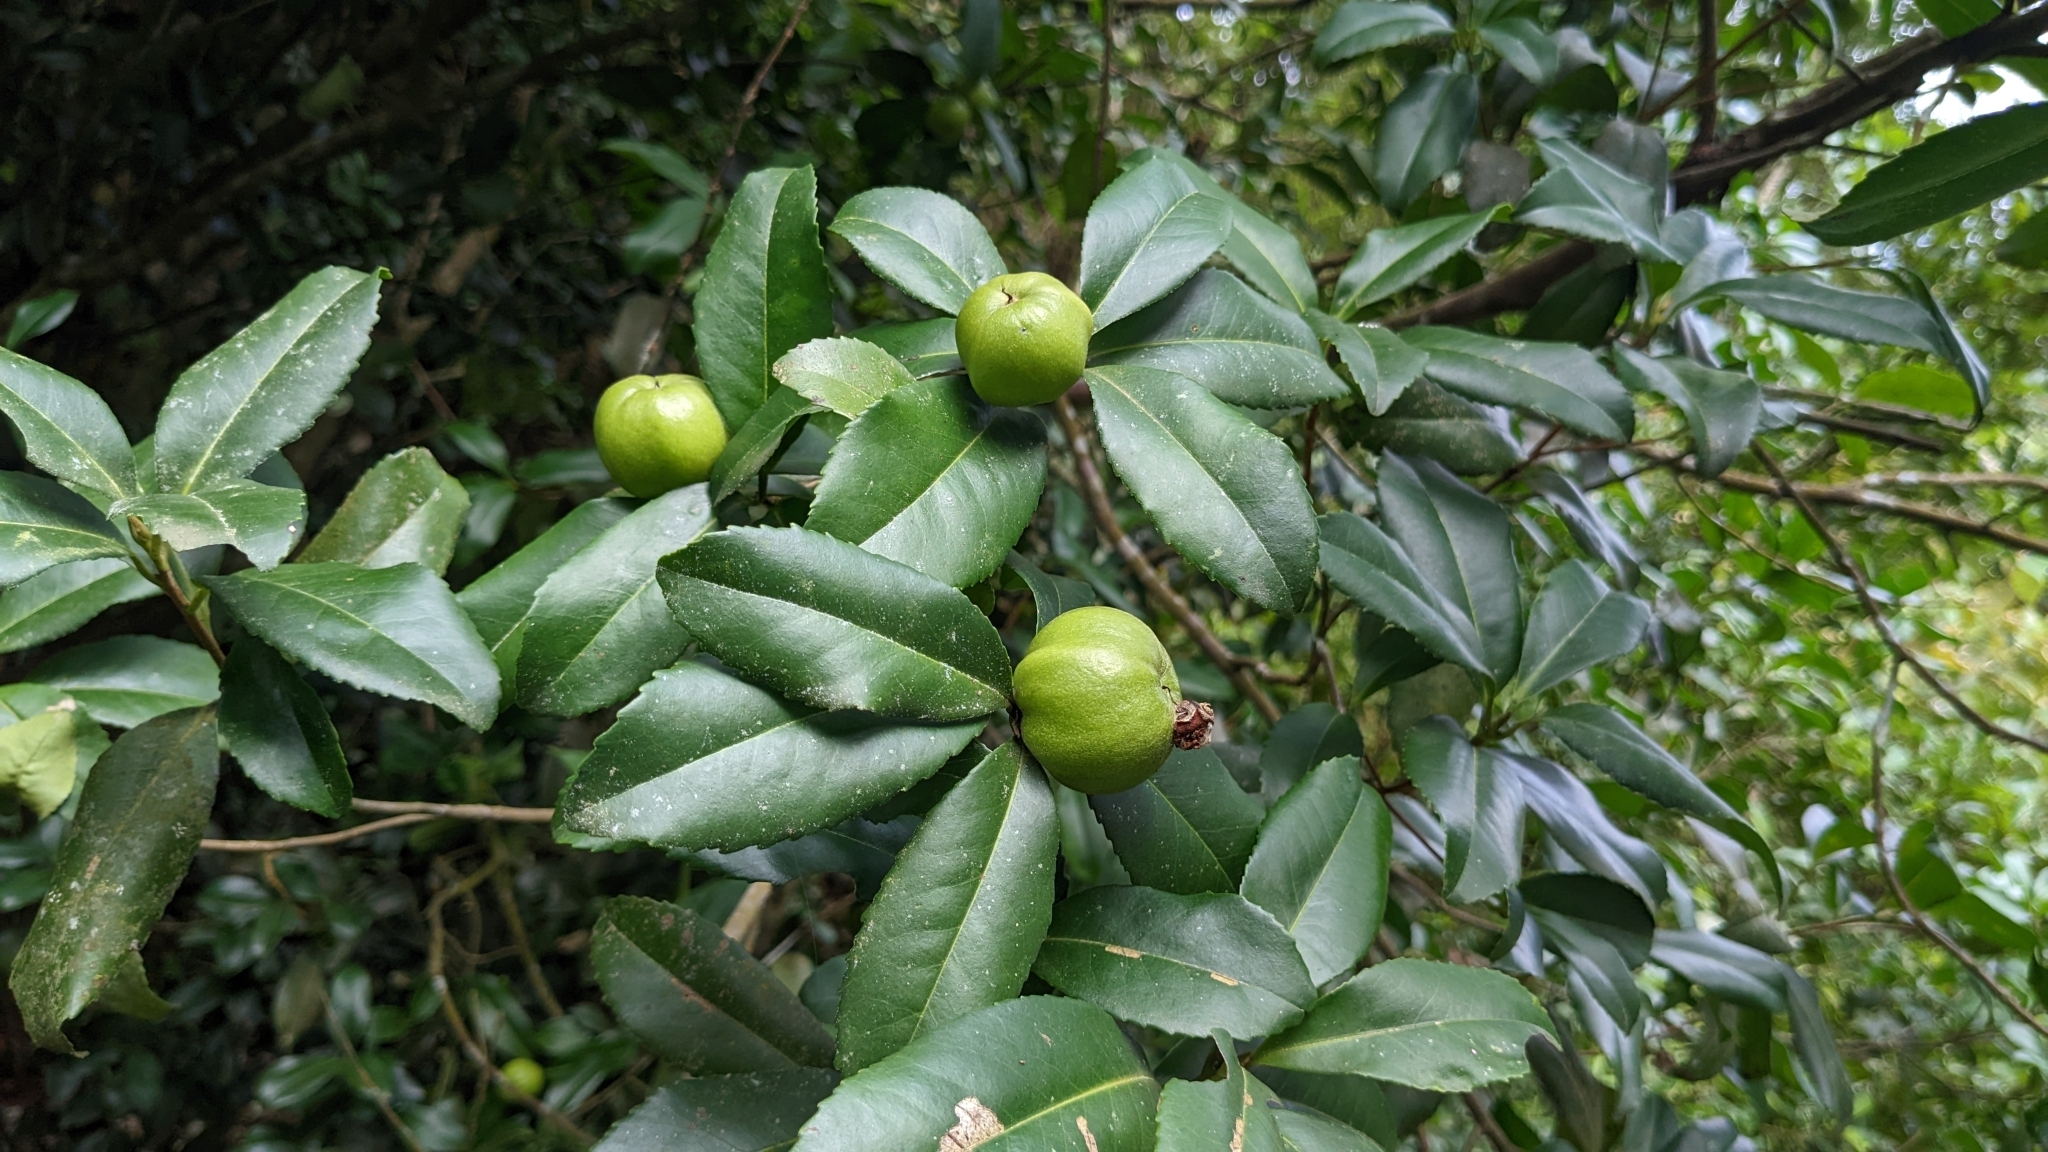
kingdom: Plantae
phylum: Tracheophyta
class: Magnoliopsida
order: Ericales
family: Theaceae
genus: Pyrenaria
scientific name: Pyrenaria microcarpa
